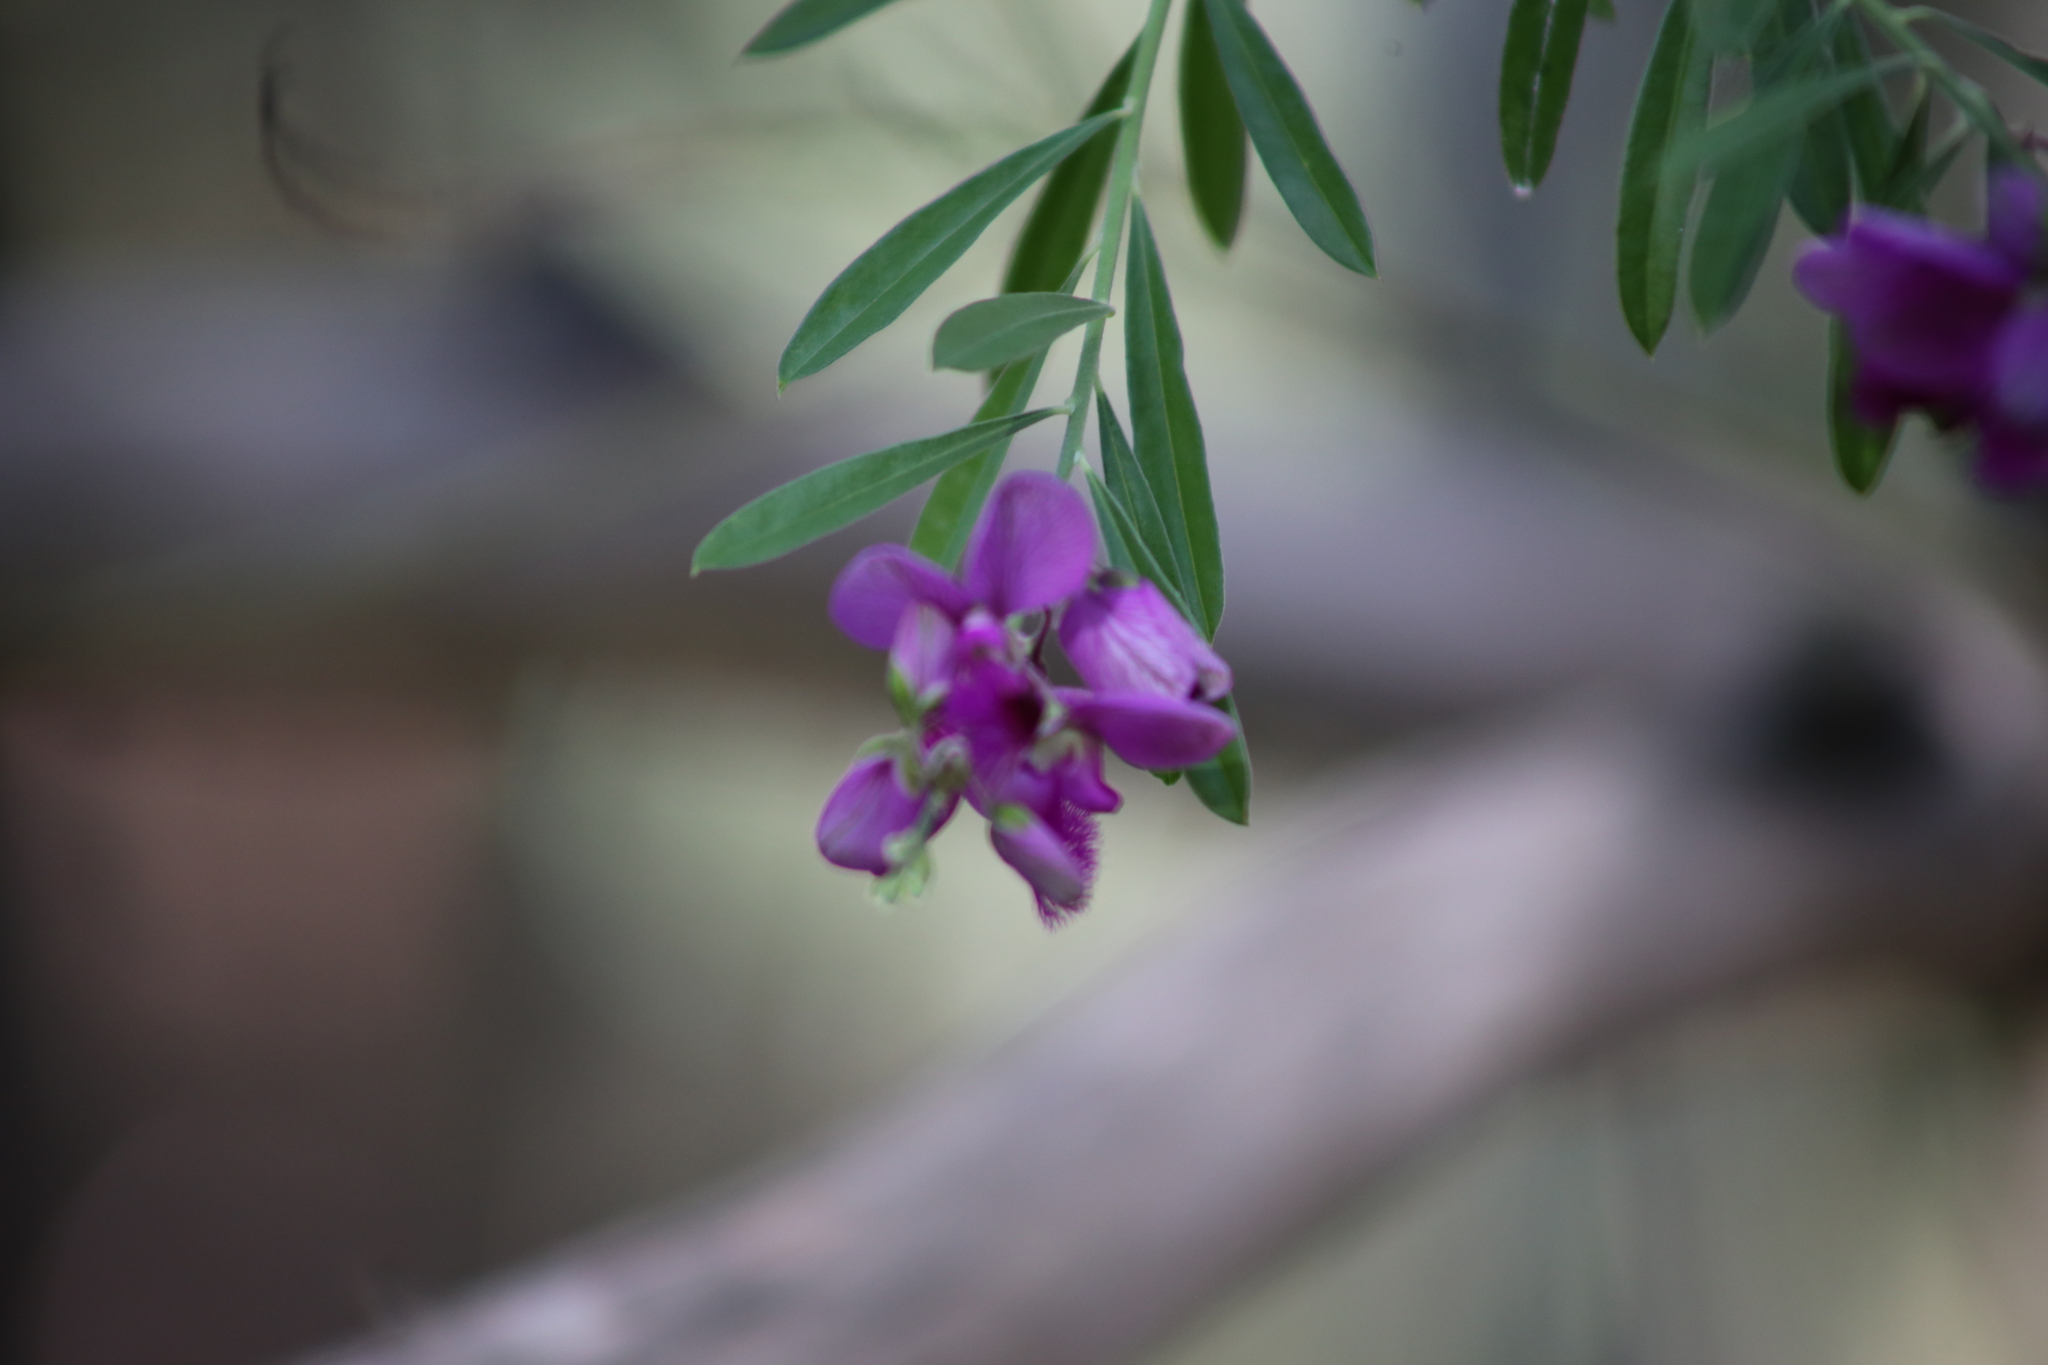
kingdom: Plantae
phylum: Tracheophyta
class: Magnoliopsida
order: Fabales
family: Polygalaceae
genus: Polygala
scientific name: Polygala virgata
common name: Milkwort
